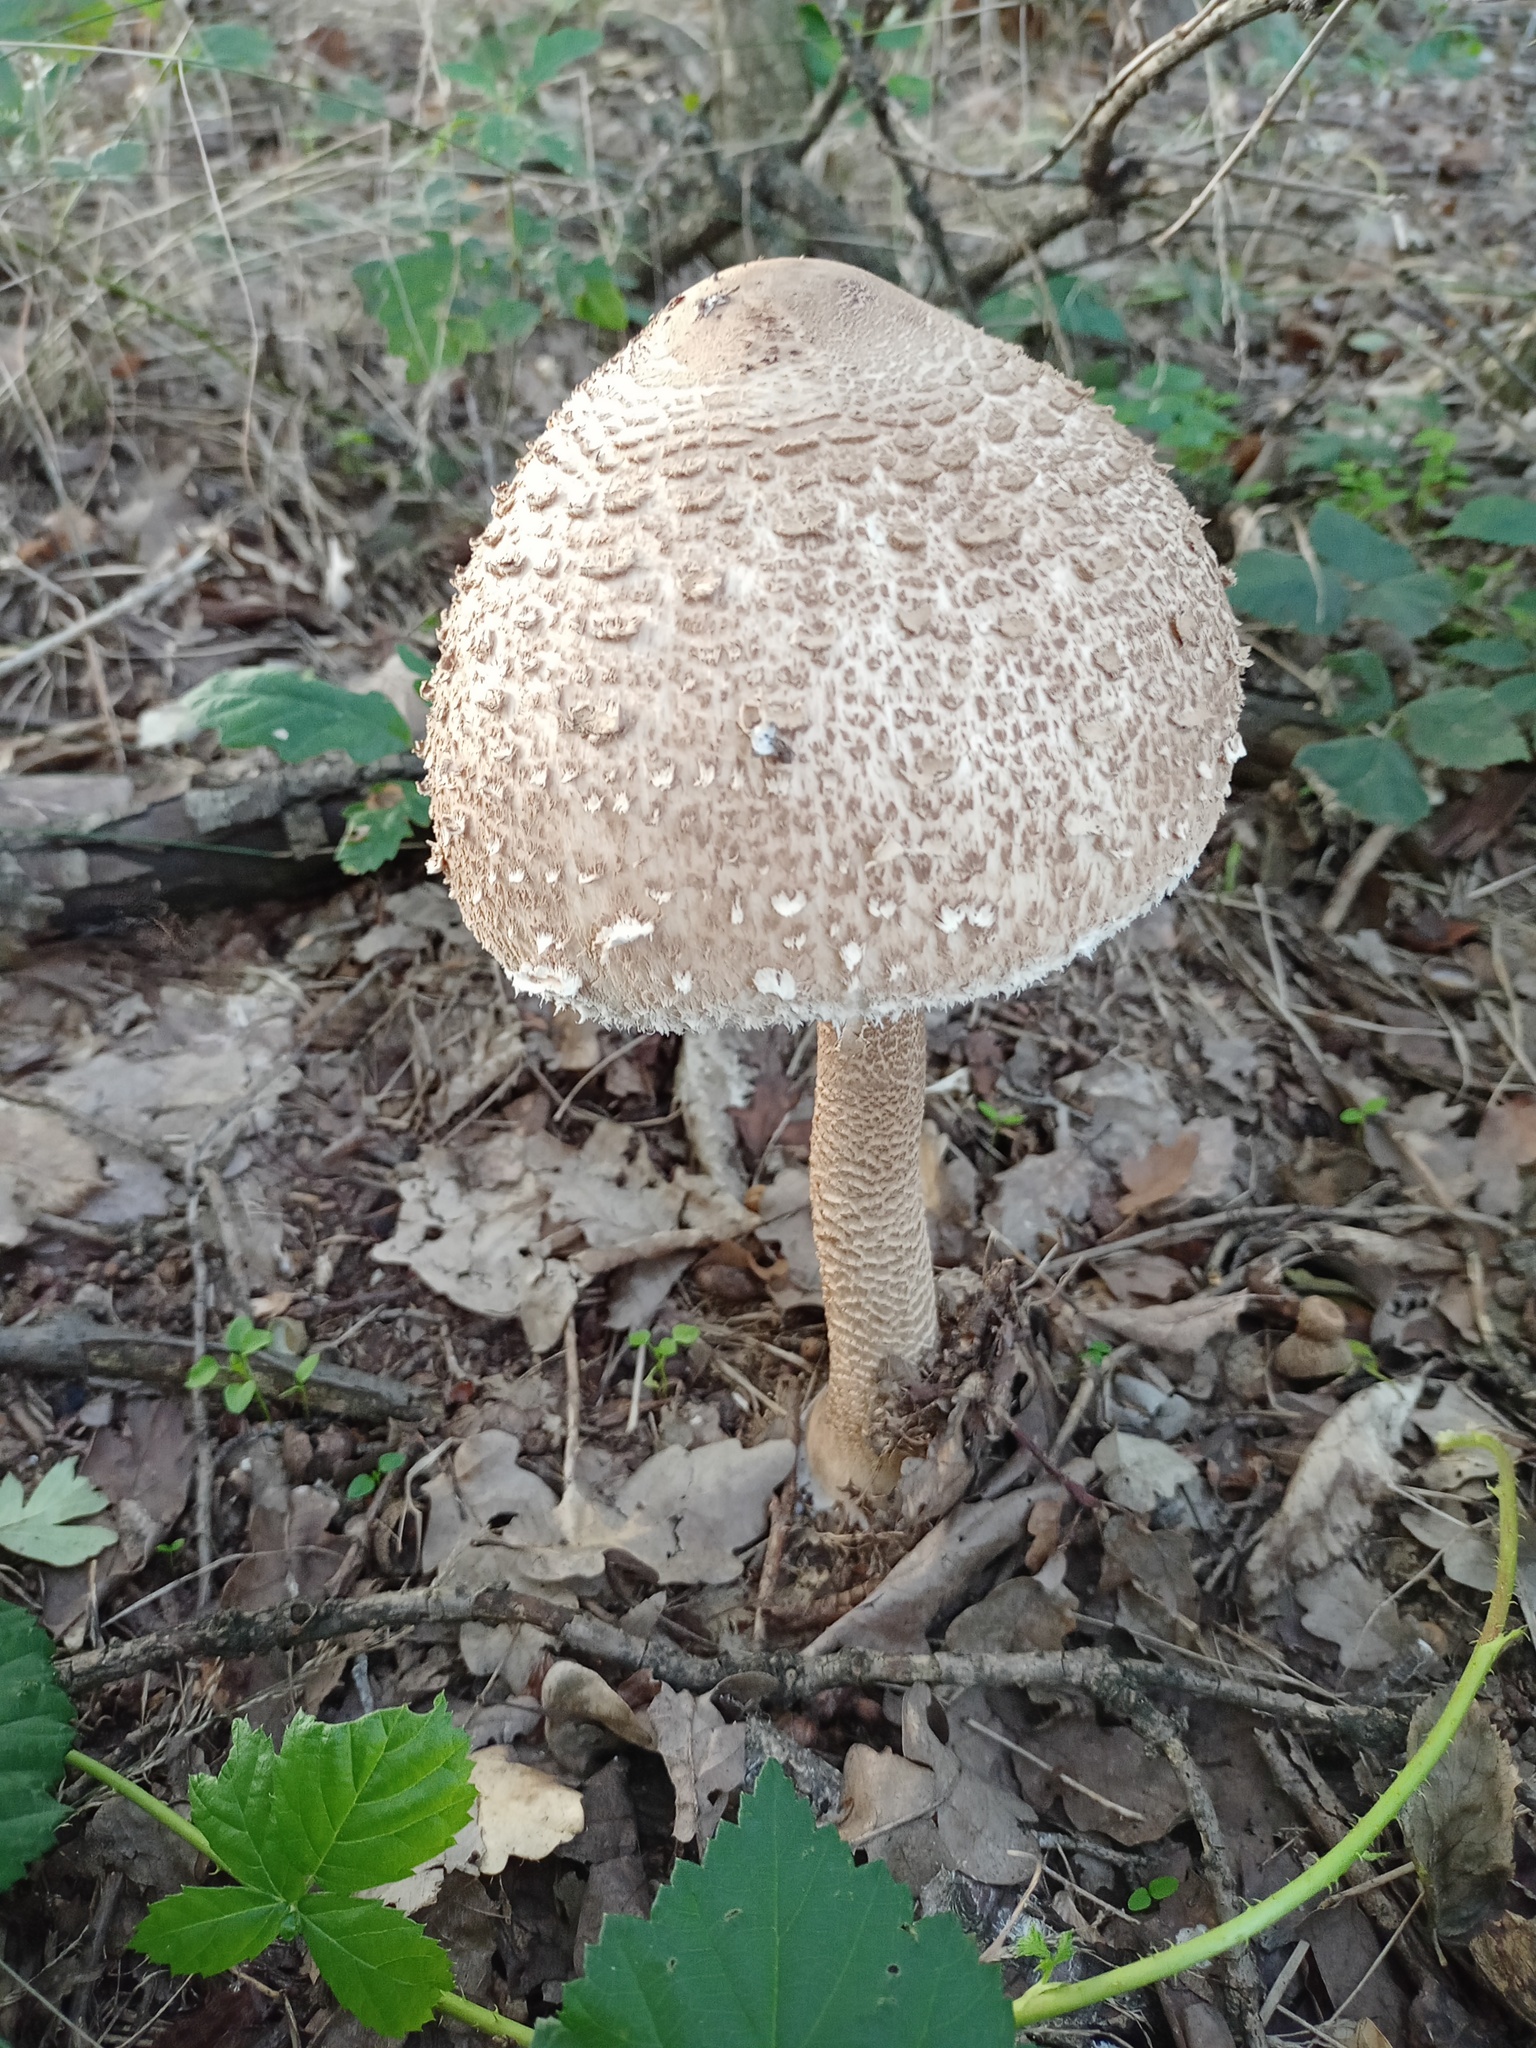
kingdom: Fungi
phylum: Basidiomycota
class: Agaricomycetes
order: Agaricales
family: Agaricaceae
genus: Macrolepiota
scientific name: Macrolepiota procera
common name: Parasol
